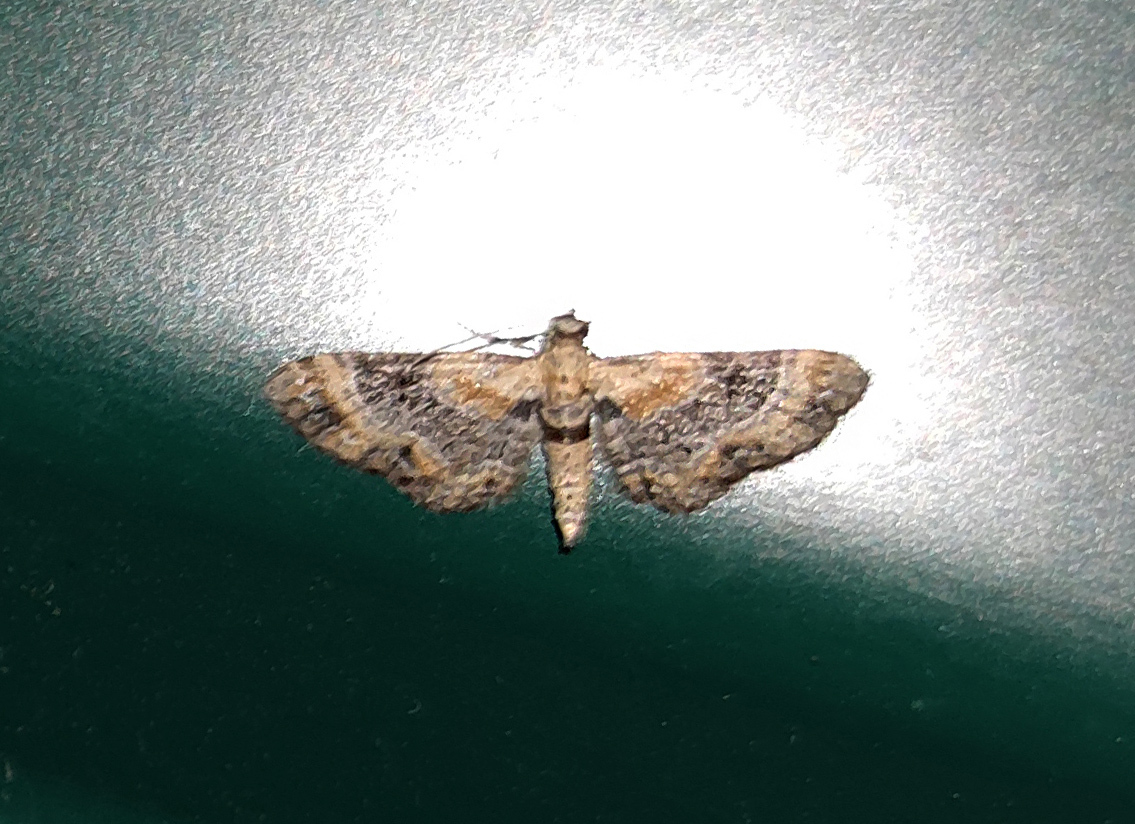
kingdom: Animalia
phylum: Arthropoda
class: Insecta
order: Lepidoptera
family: Geometridae
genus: Eupithecia
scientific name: Eupithecia linariata
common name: Toadflax pug
